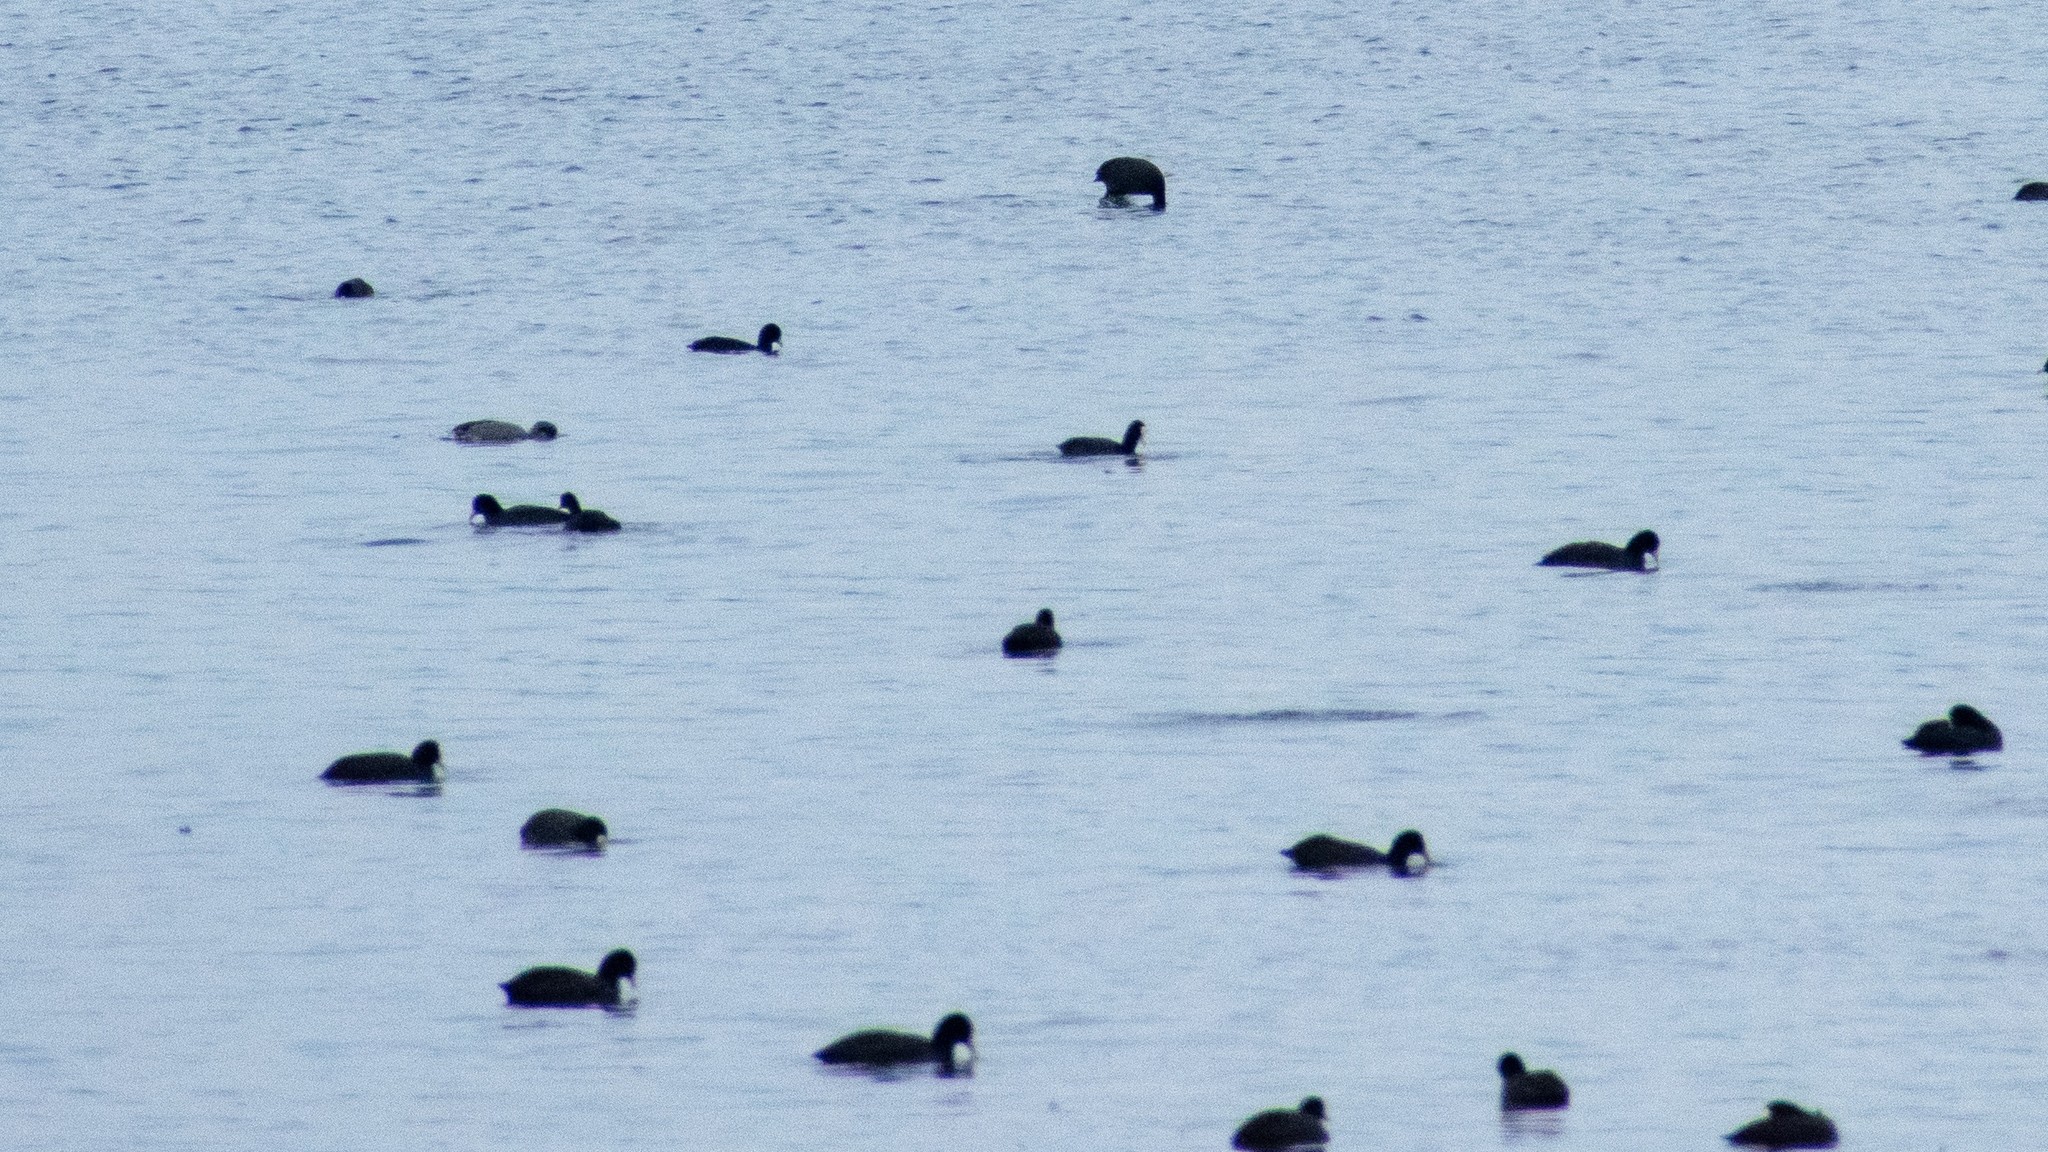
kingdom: Animalia
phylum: Chordata
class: Aves
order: Gruiformes
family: Rallidae
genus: Fulica
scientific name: Fulica atra
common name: Eurasian coot
